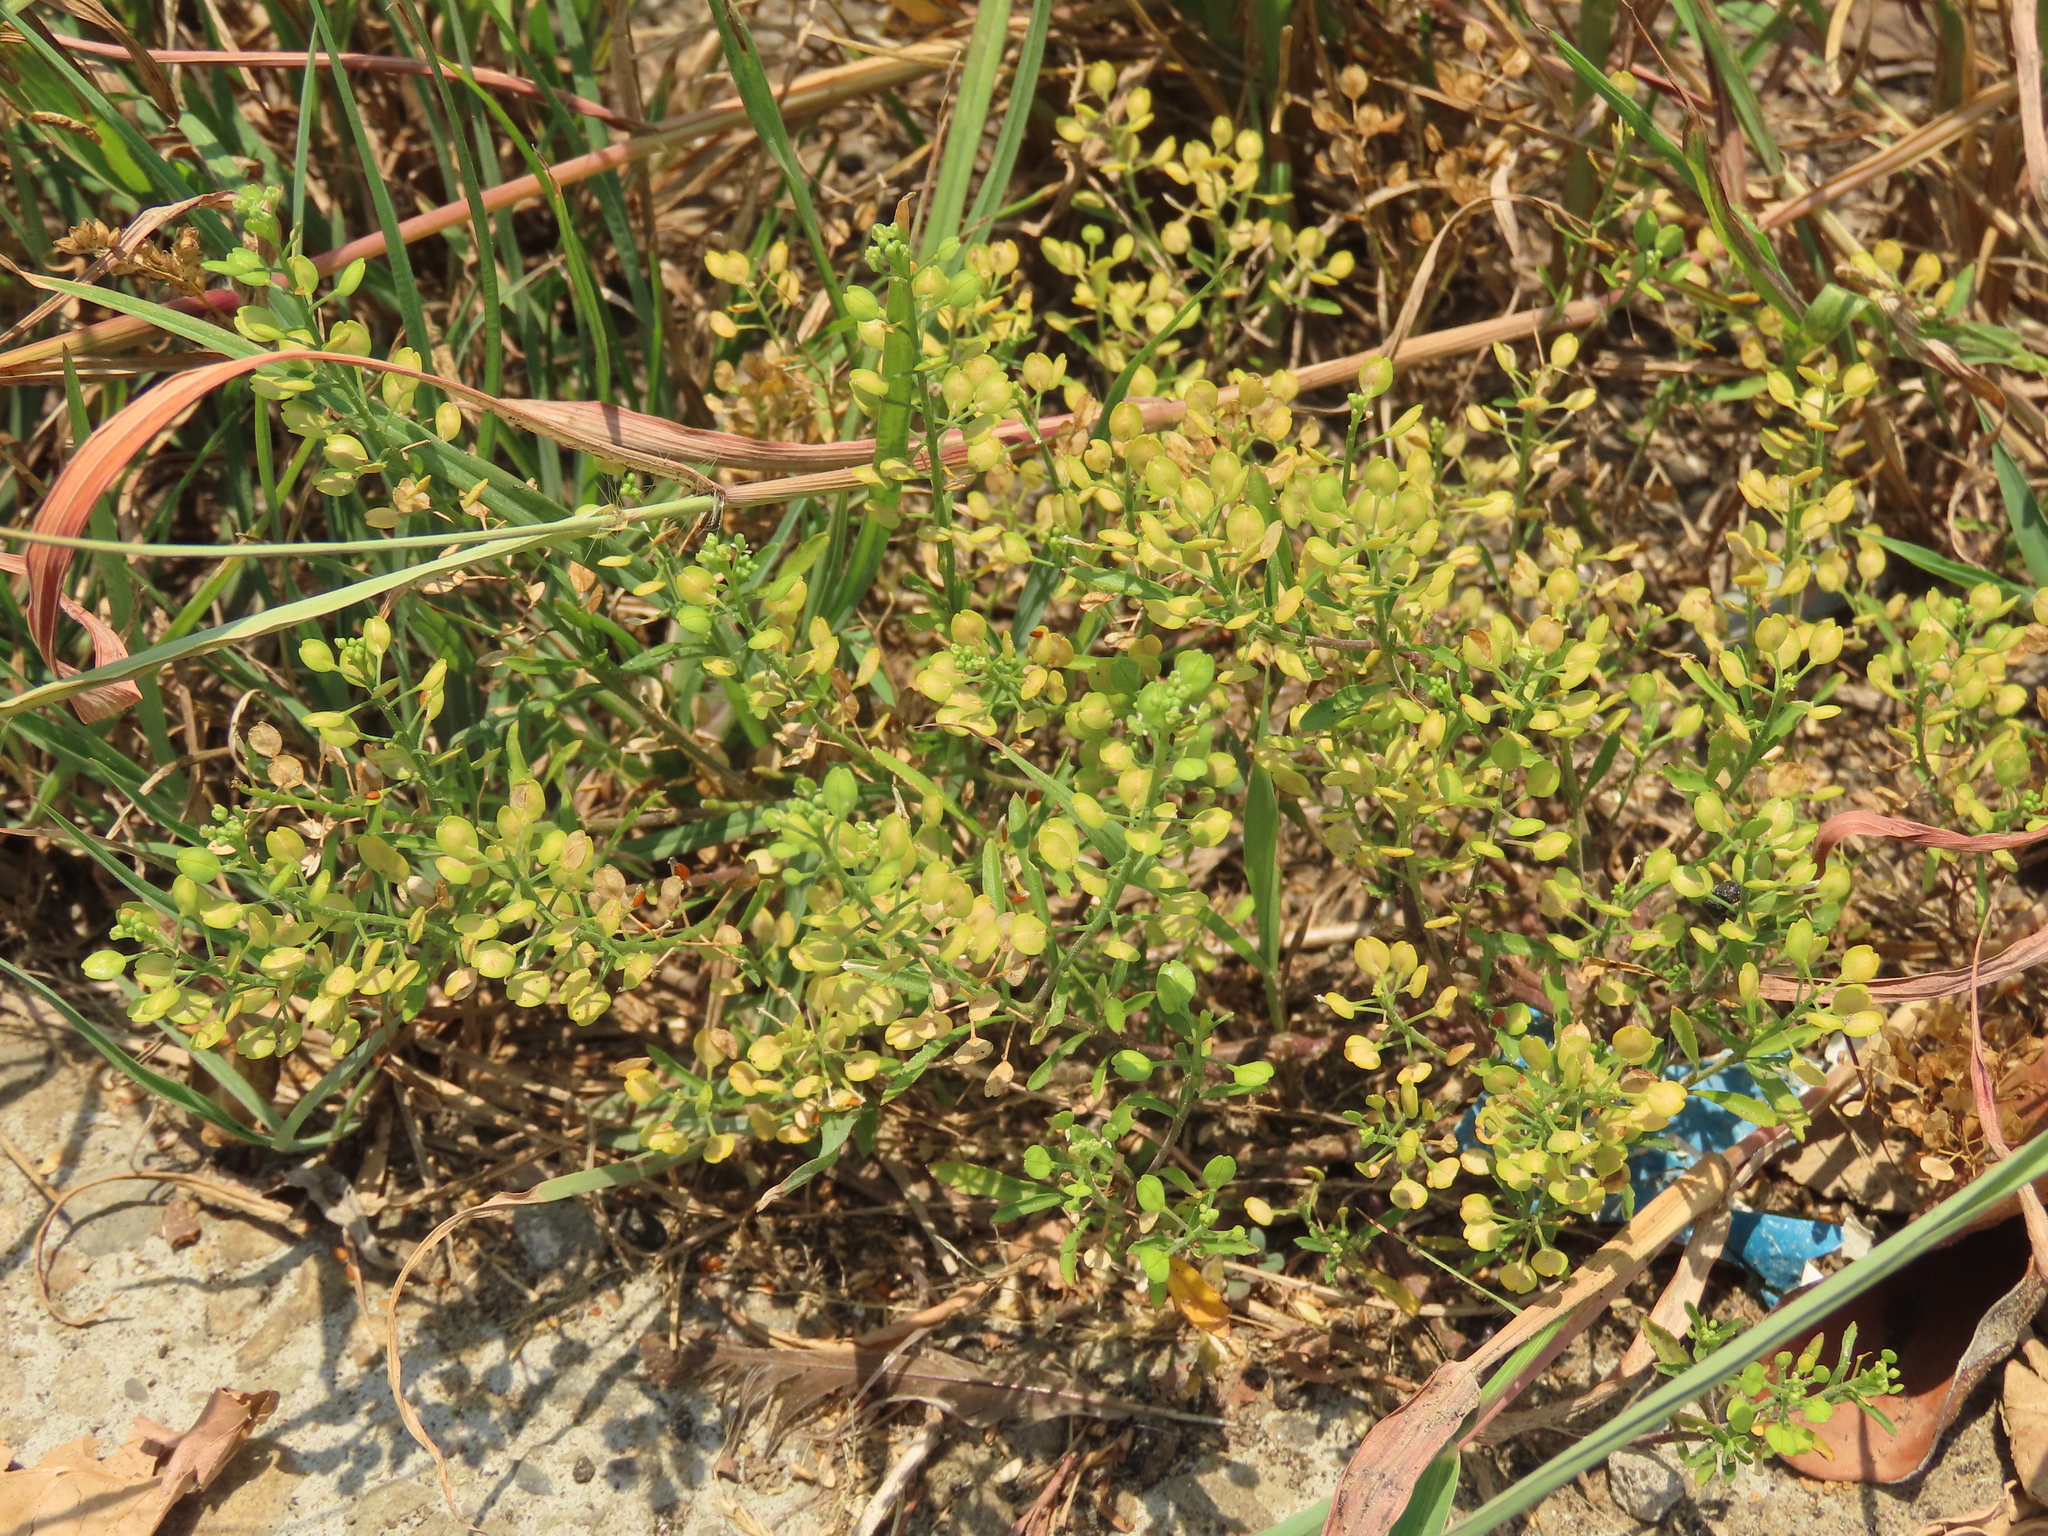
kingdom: Plantae
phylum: Tracheophyta
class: Magnoliopsida
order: Brassicales
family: Brassicaceae
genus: Lepidium
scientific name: Lepidium virginicum
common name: Least pepperwort
